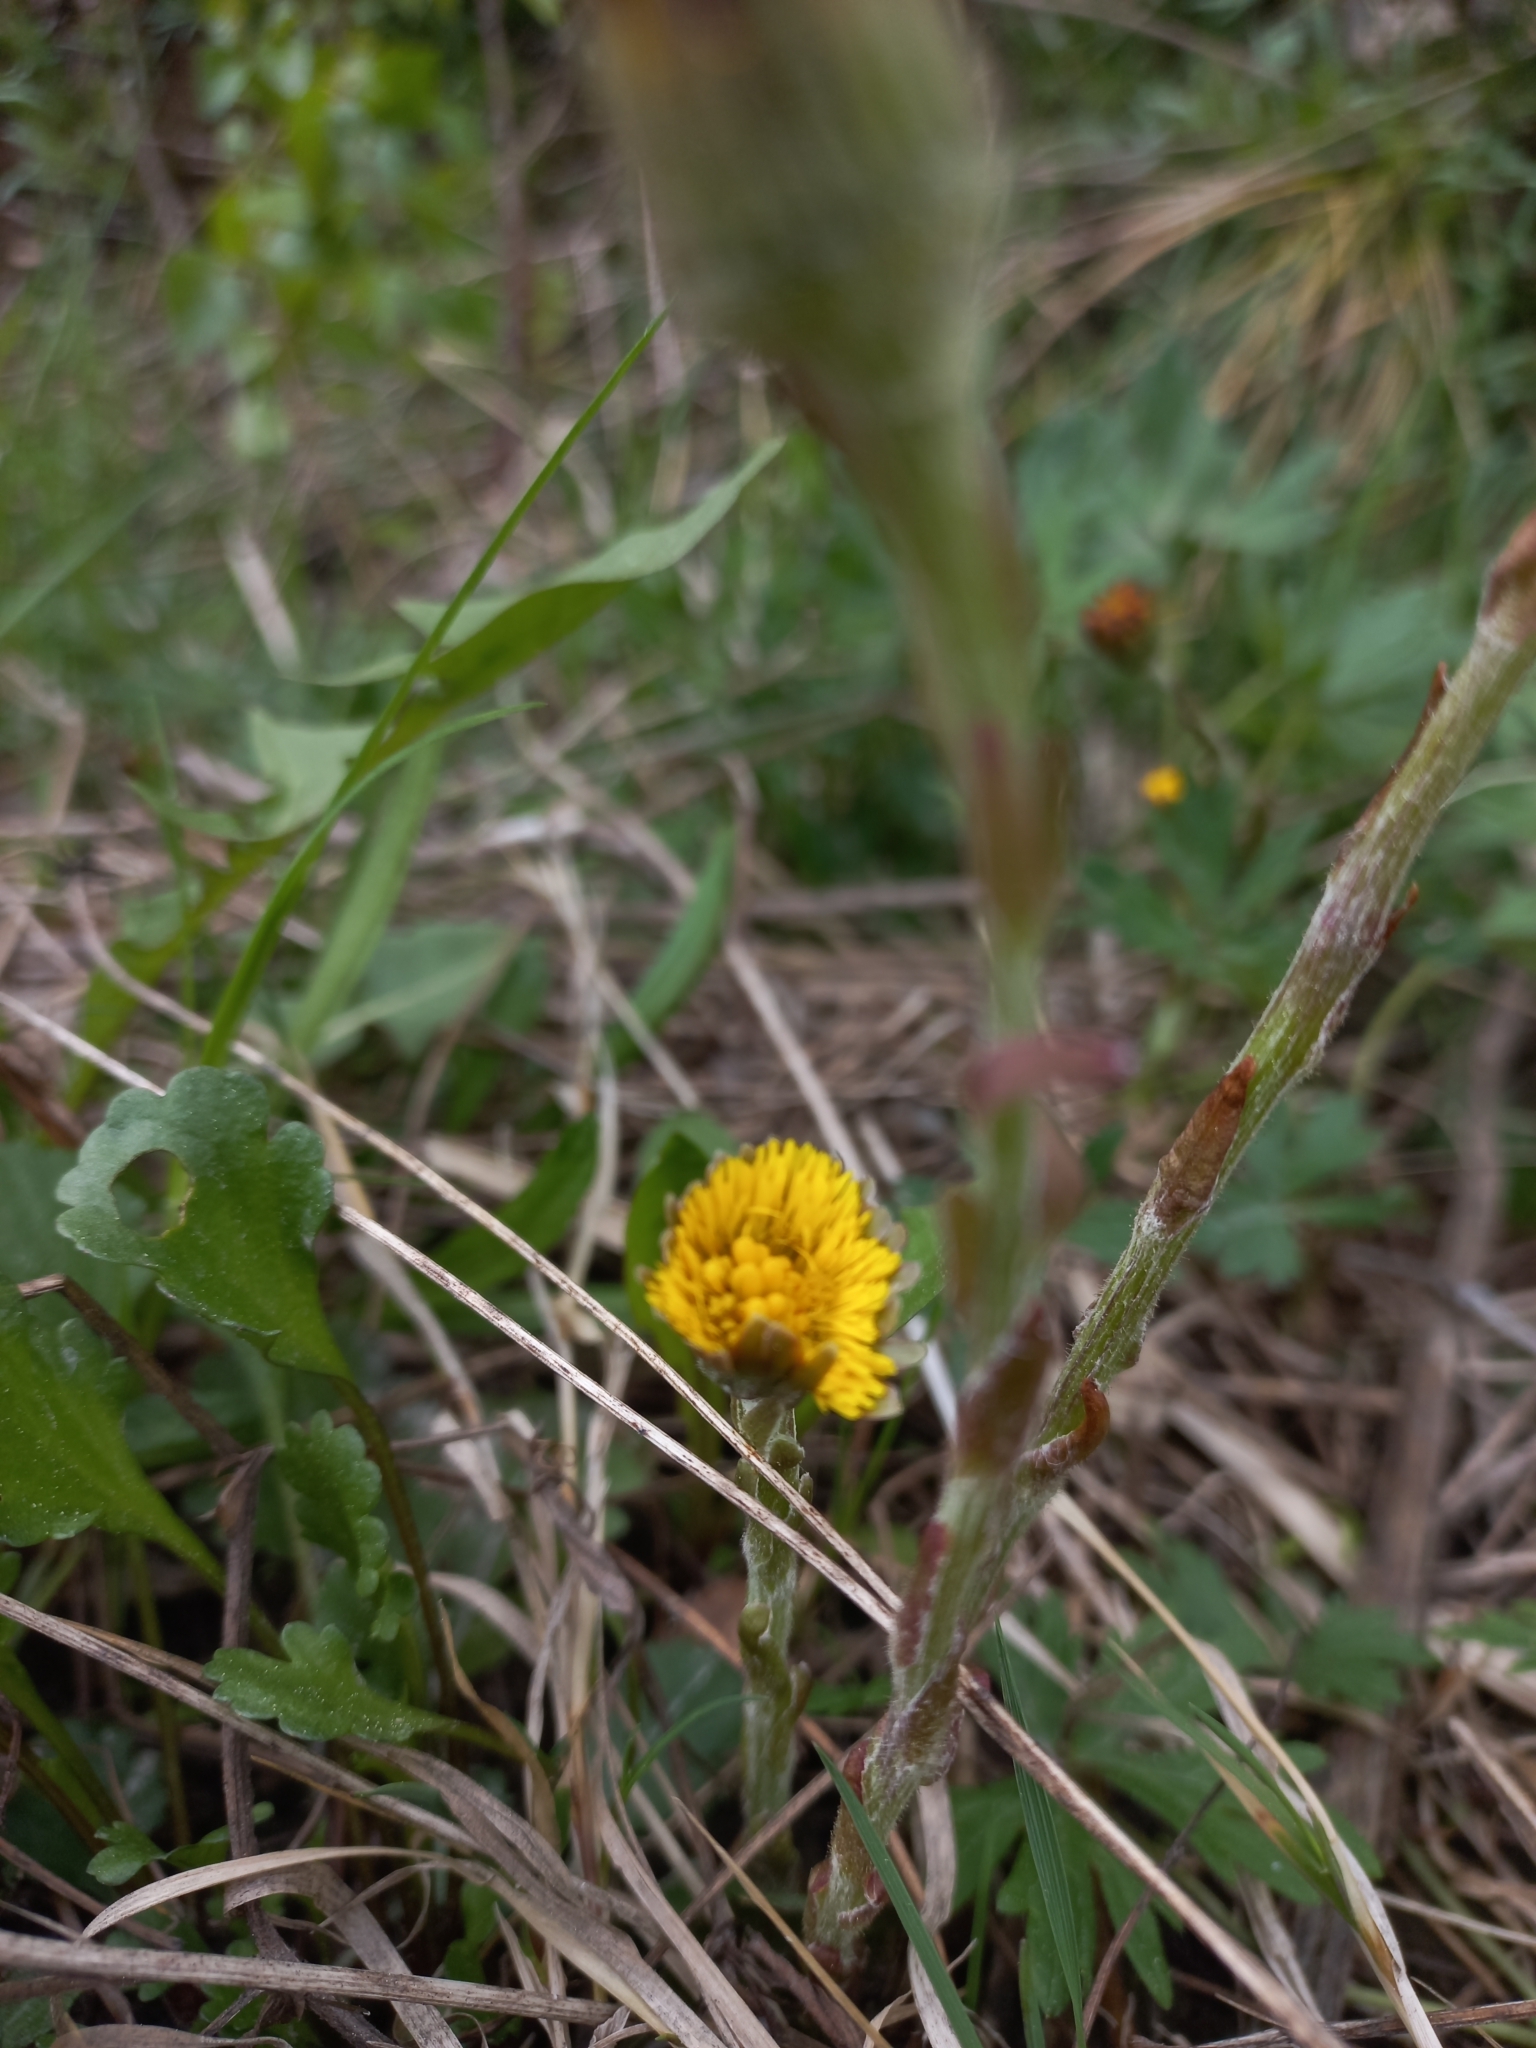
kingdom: Plantae
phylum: Tracheophyta
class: Magnoliopsida
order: Asterales
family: Asteraceae
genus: Tussilago
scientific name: Tussilago farfara
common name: Coltsfoot
